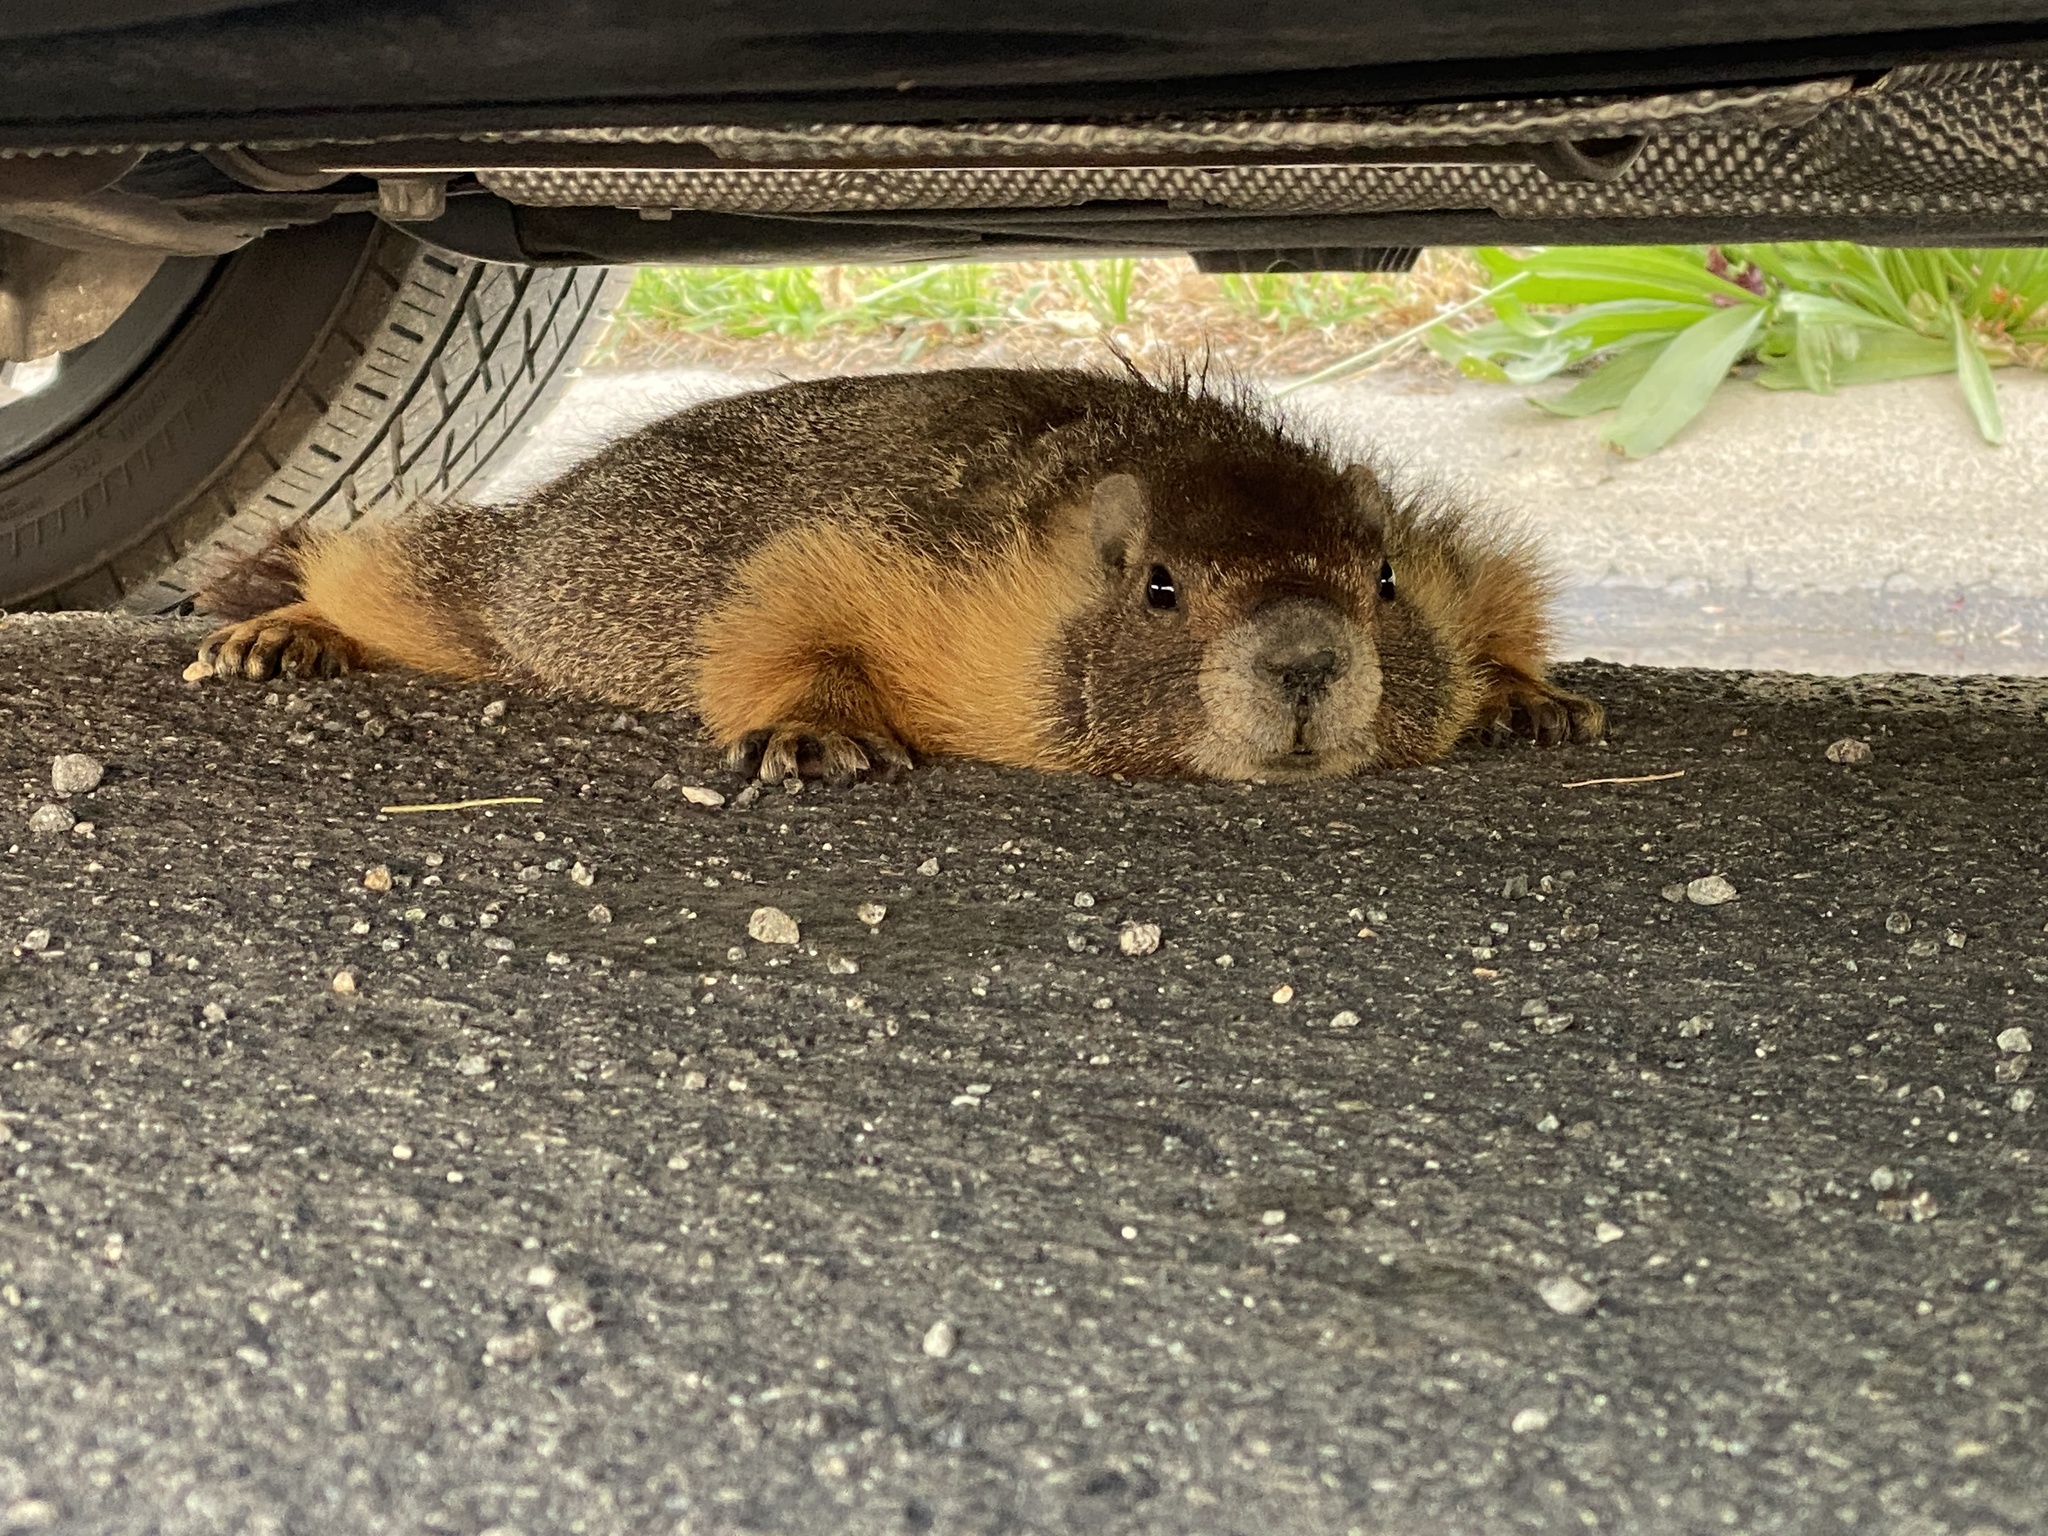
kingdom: Animalia
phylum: Chordata
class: Mammalia
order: Rodentia
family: Sciuridae
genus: Marmota
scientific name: Marmota flaviventris
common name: Yellow-bellied marmot
